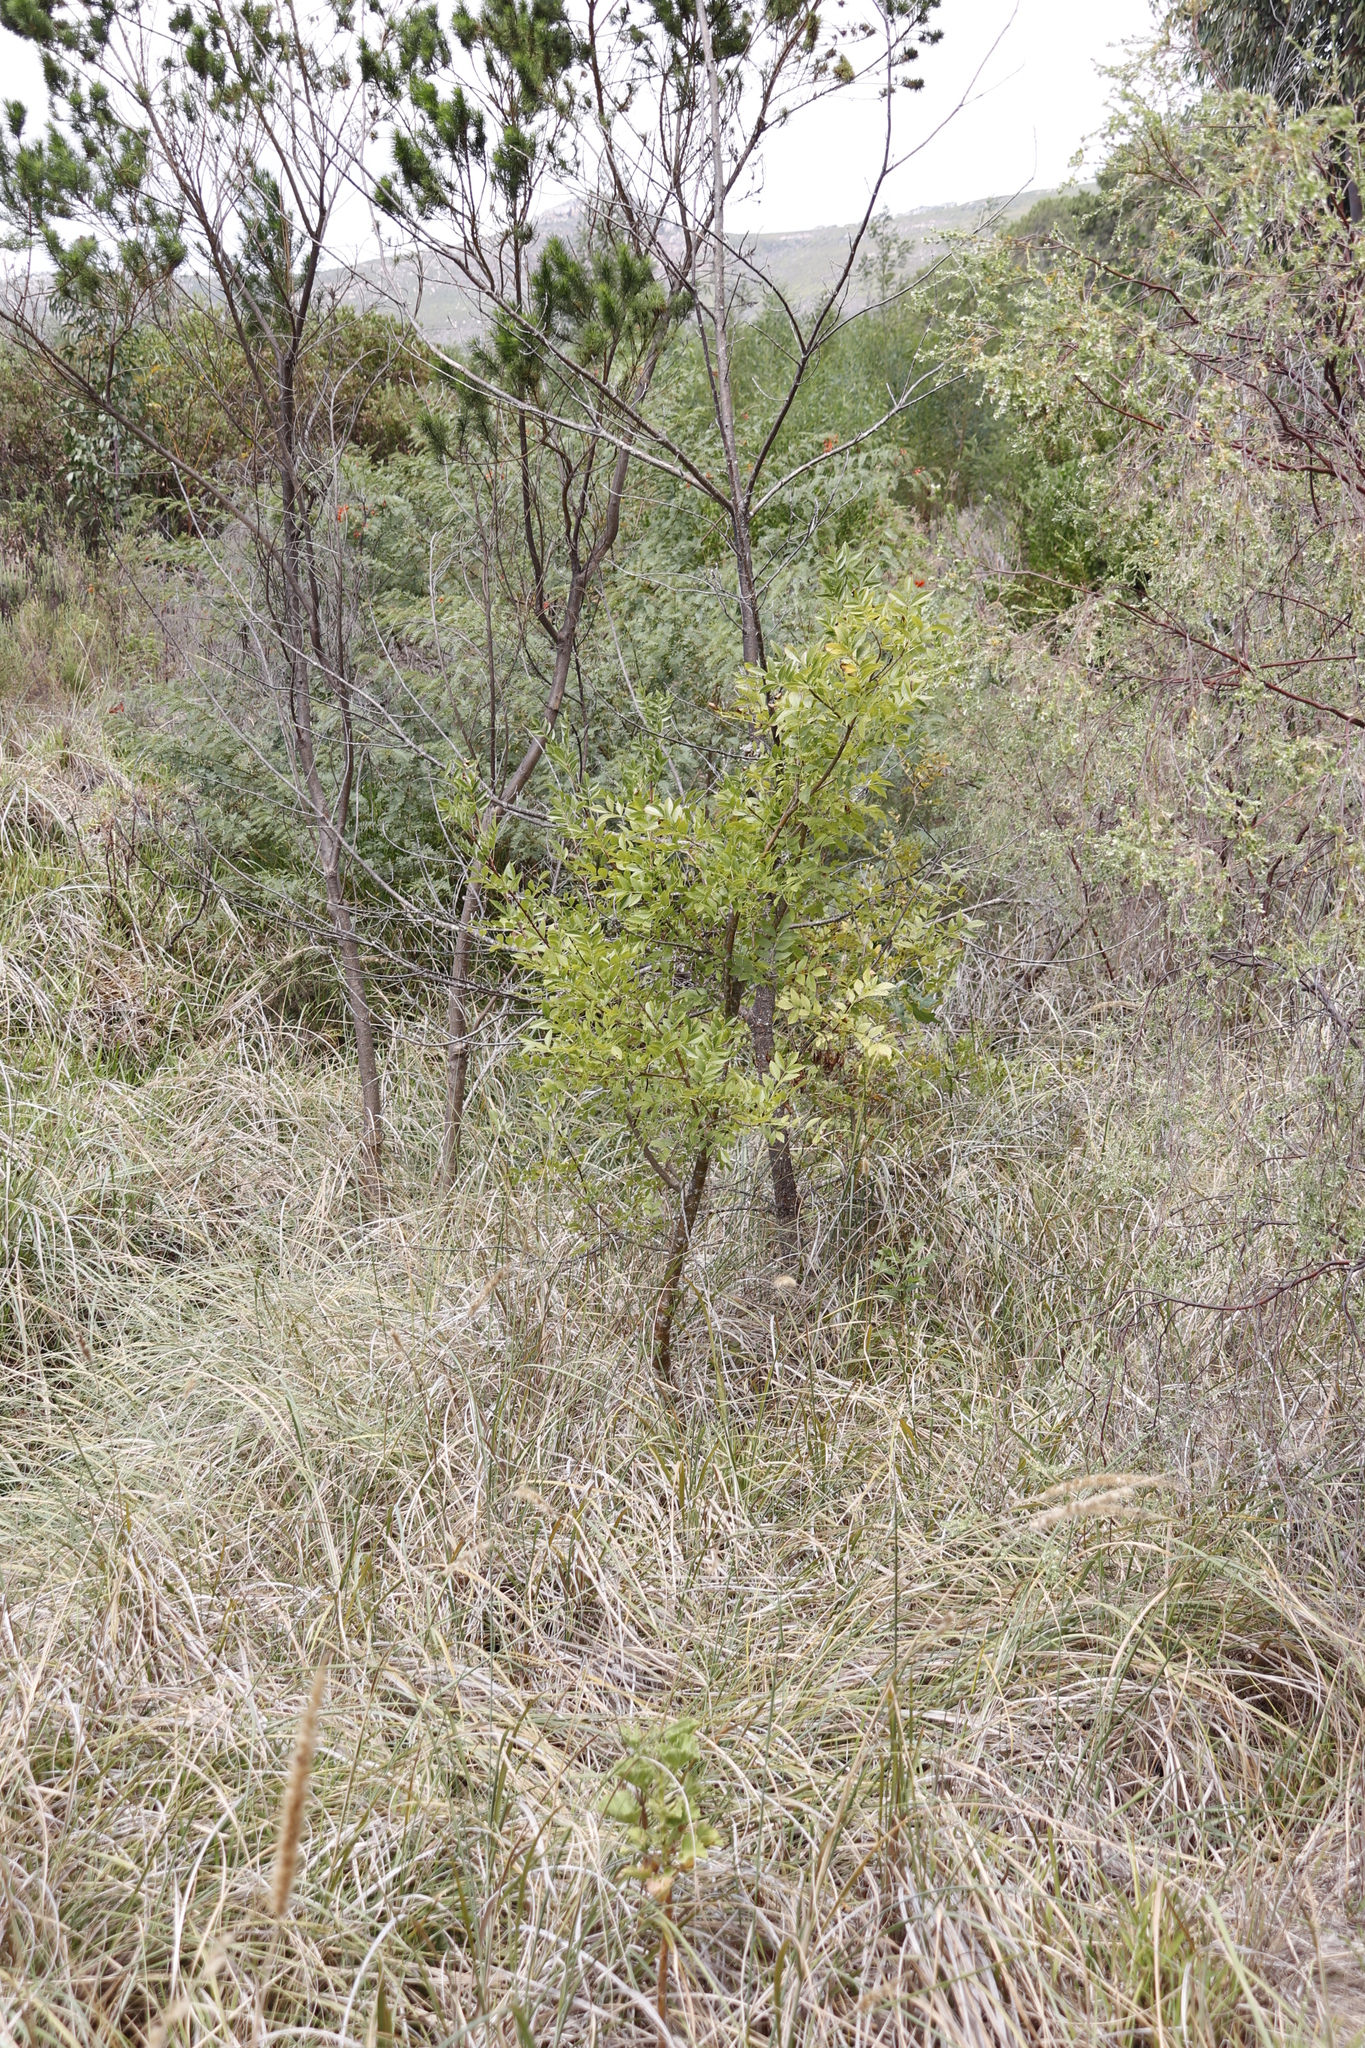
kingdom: Plantae
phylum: Tracheophyta
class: Magnoliopsida
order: Sapindales
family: Anacardiaceae
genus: Schinus
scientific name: Schinus terebinthifolia
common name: Brazilian peppertree
